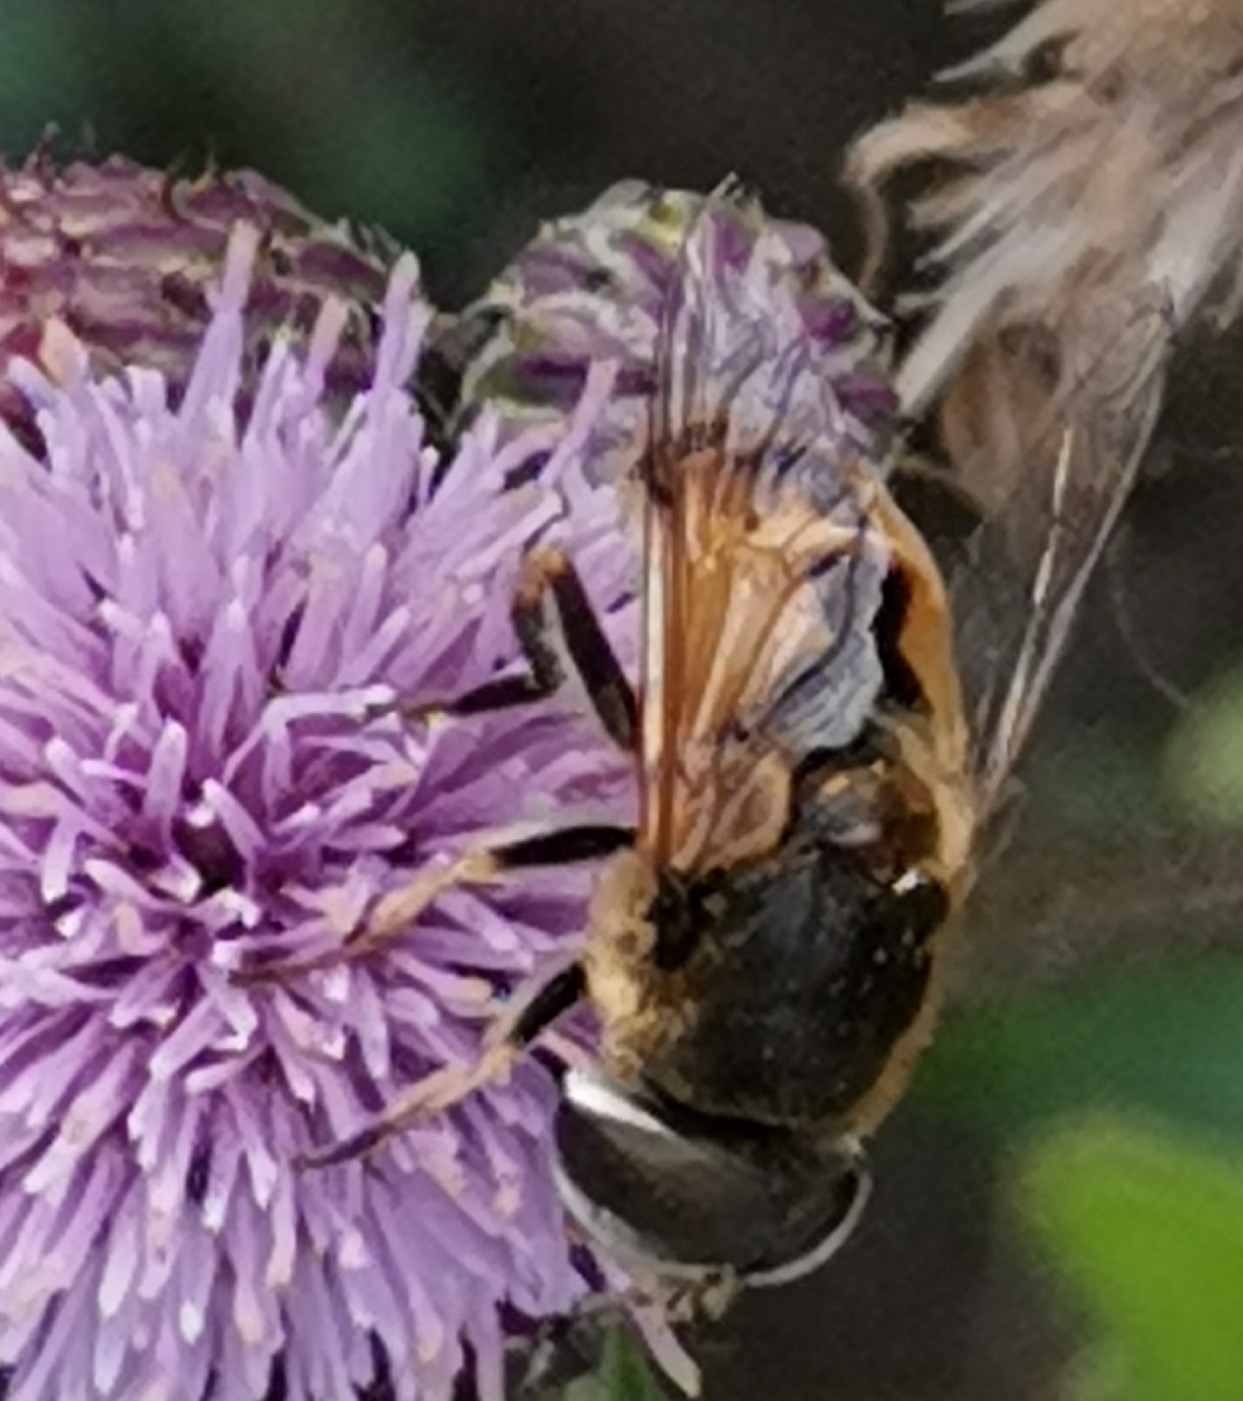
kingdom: Animalia
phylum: Arthropoda
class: Insecta
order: Diptera
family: Syrphidae
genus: Eristalis
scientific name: Eristalis arbustorum
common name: Hover fly
